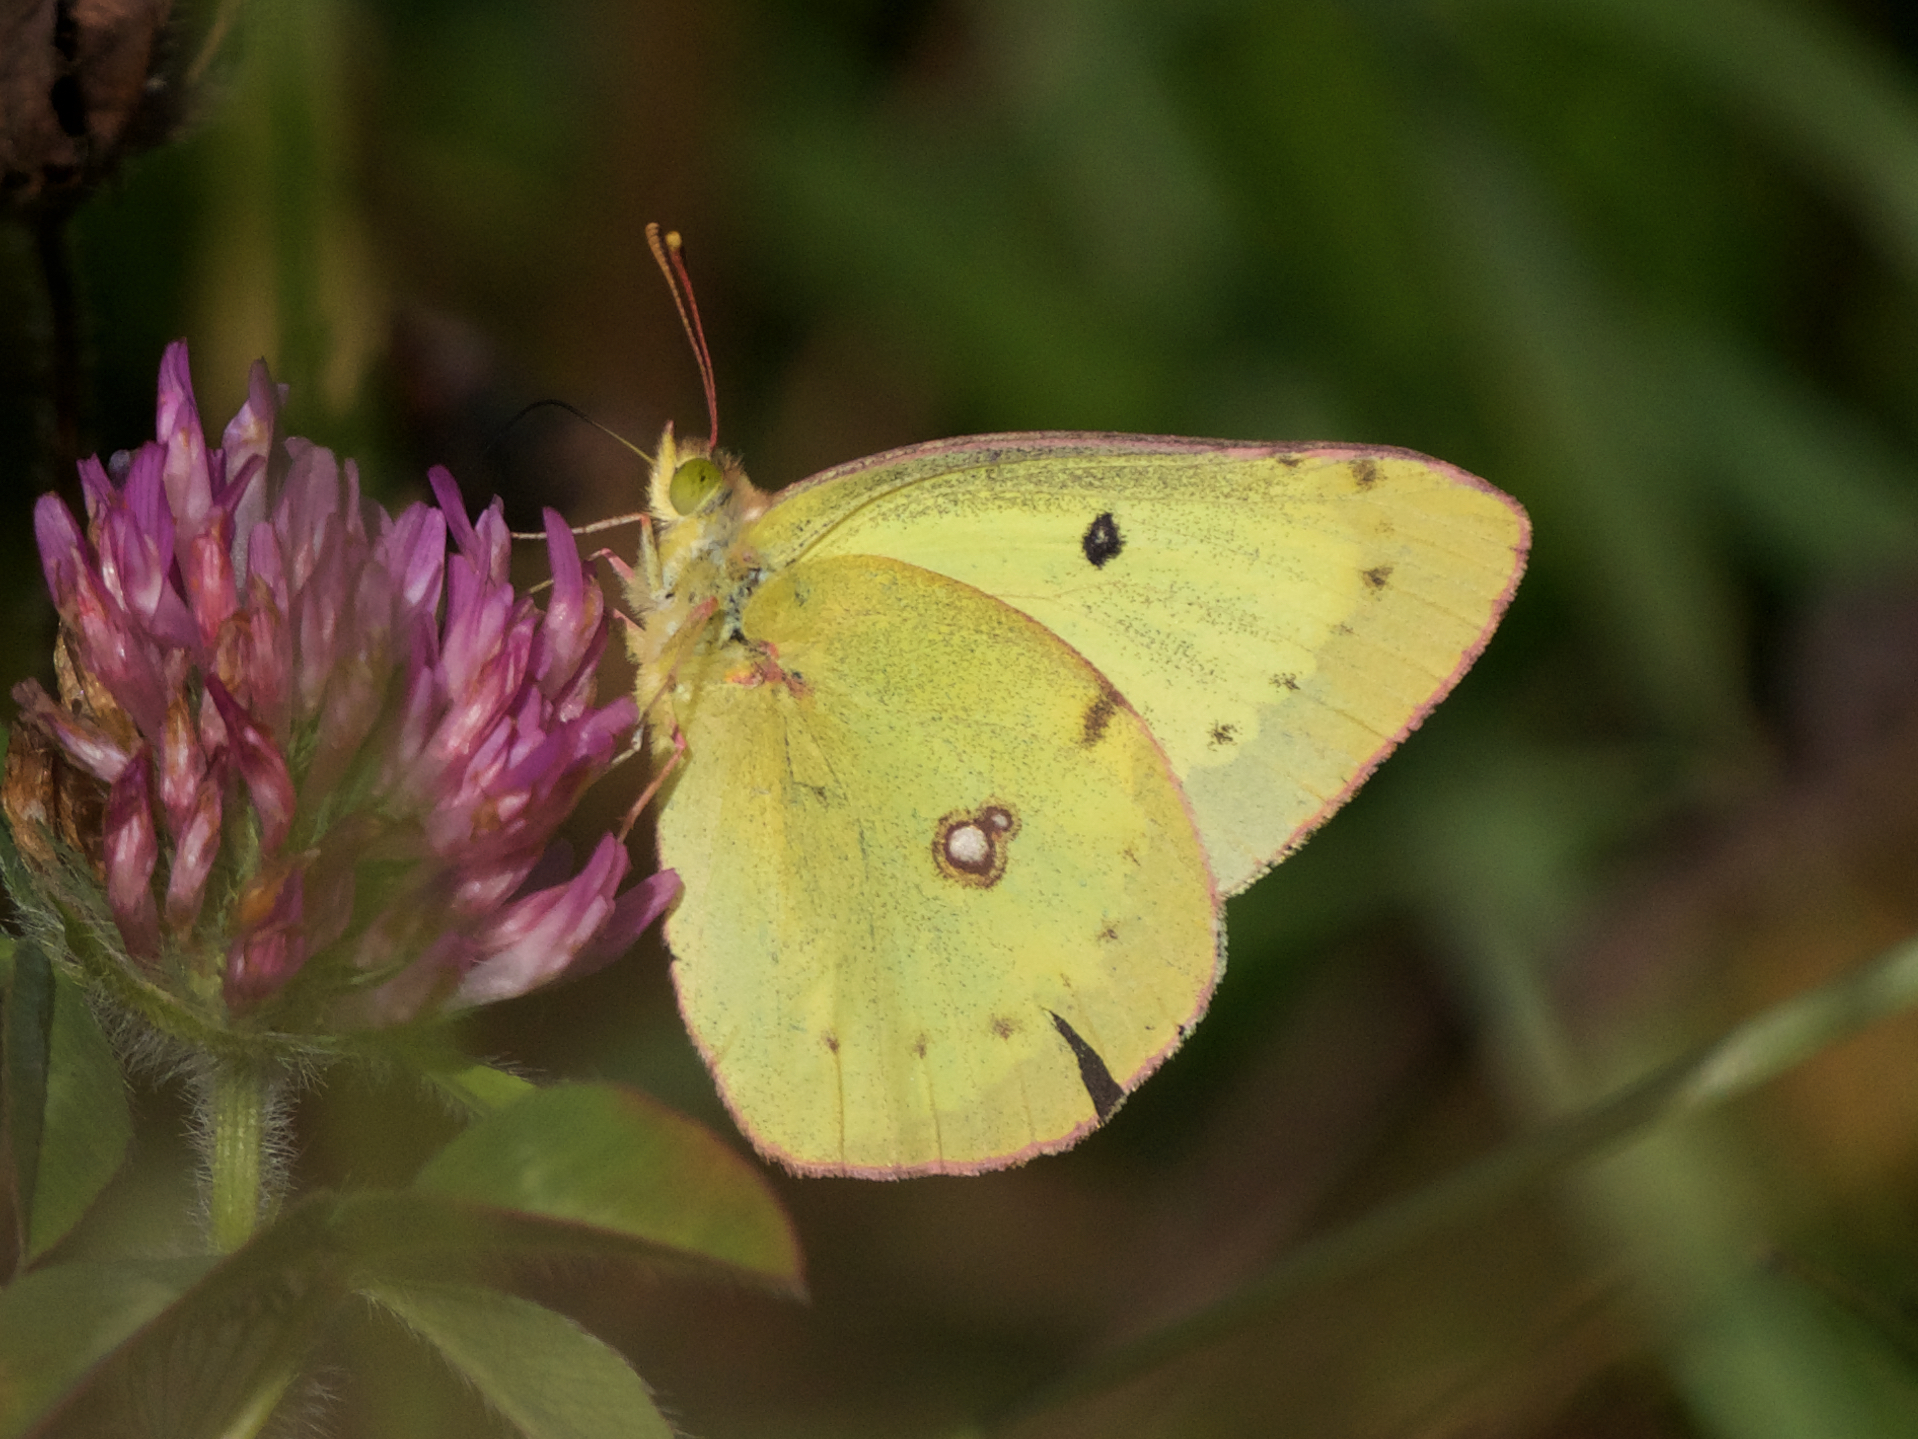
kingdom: Animalia
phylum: Arthropoda
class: Insecta
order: Lepidoptera
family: Pieridae
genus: Colias
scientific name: Colias philodice
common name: Clouded sulphur
